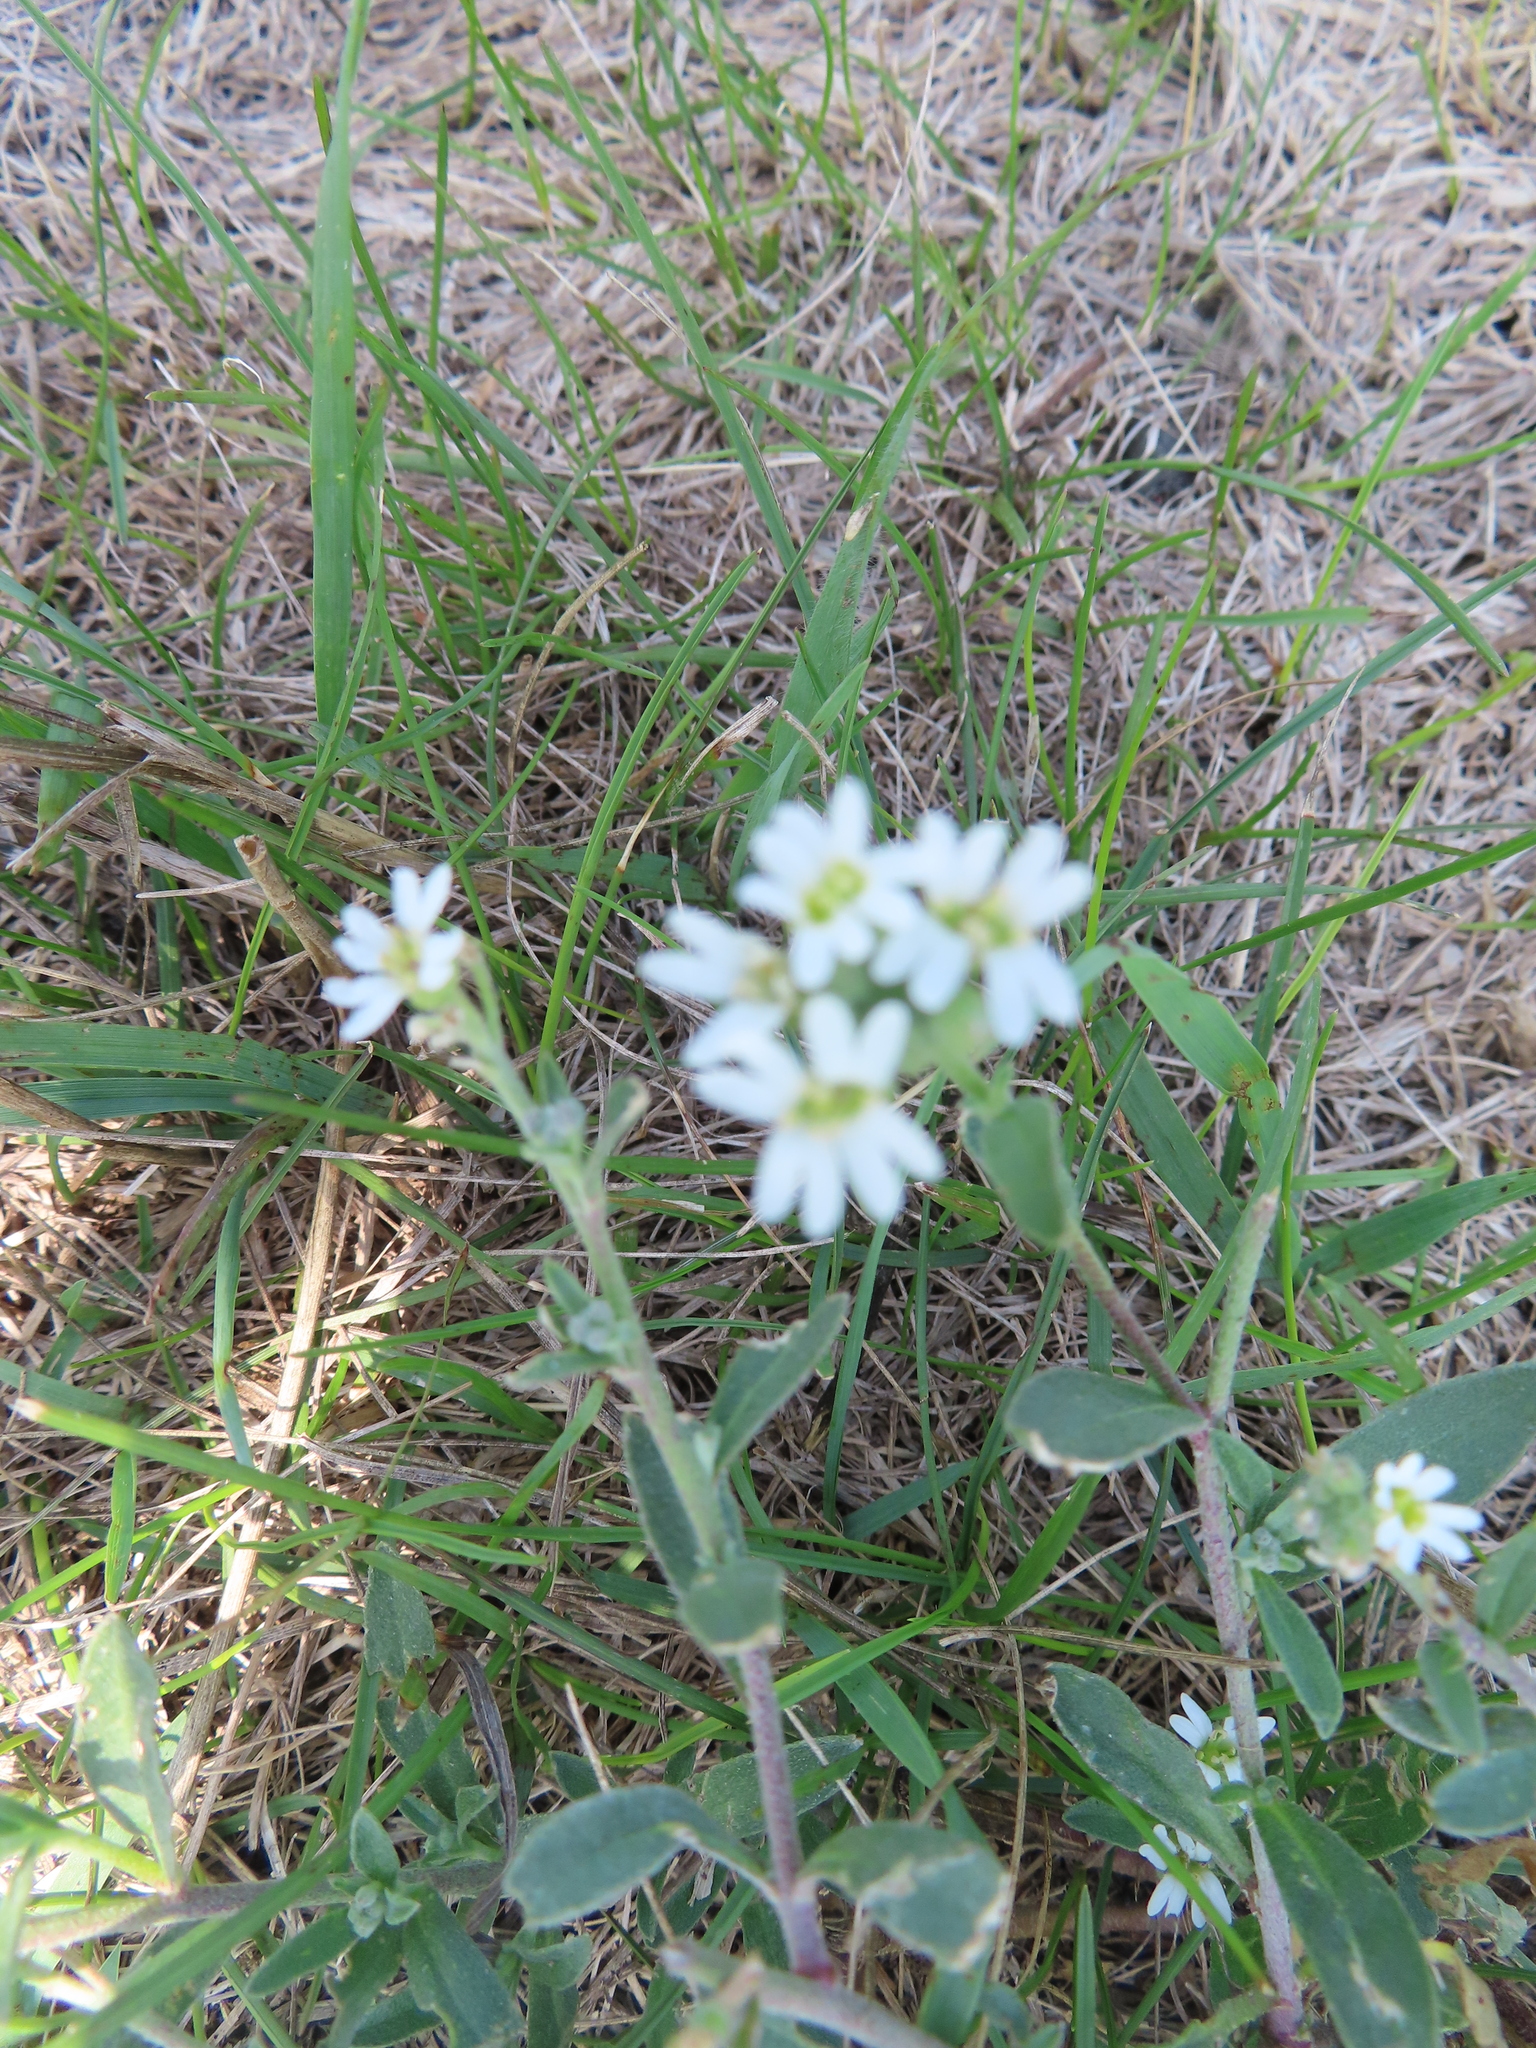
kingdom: Plantae
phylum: Tracheophyta
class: Magnoliopsida
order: Brassicales
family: Brassicaceae
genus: Berteroa
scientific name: Berteroa incana
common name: Hoary alison
